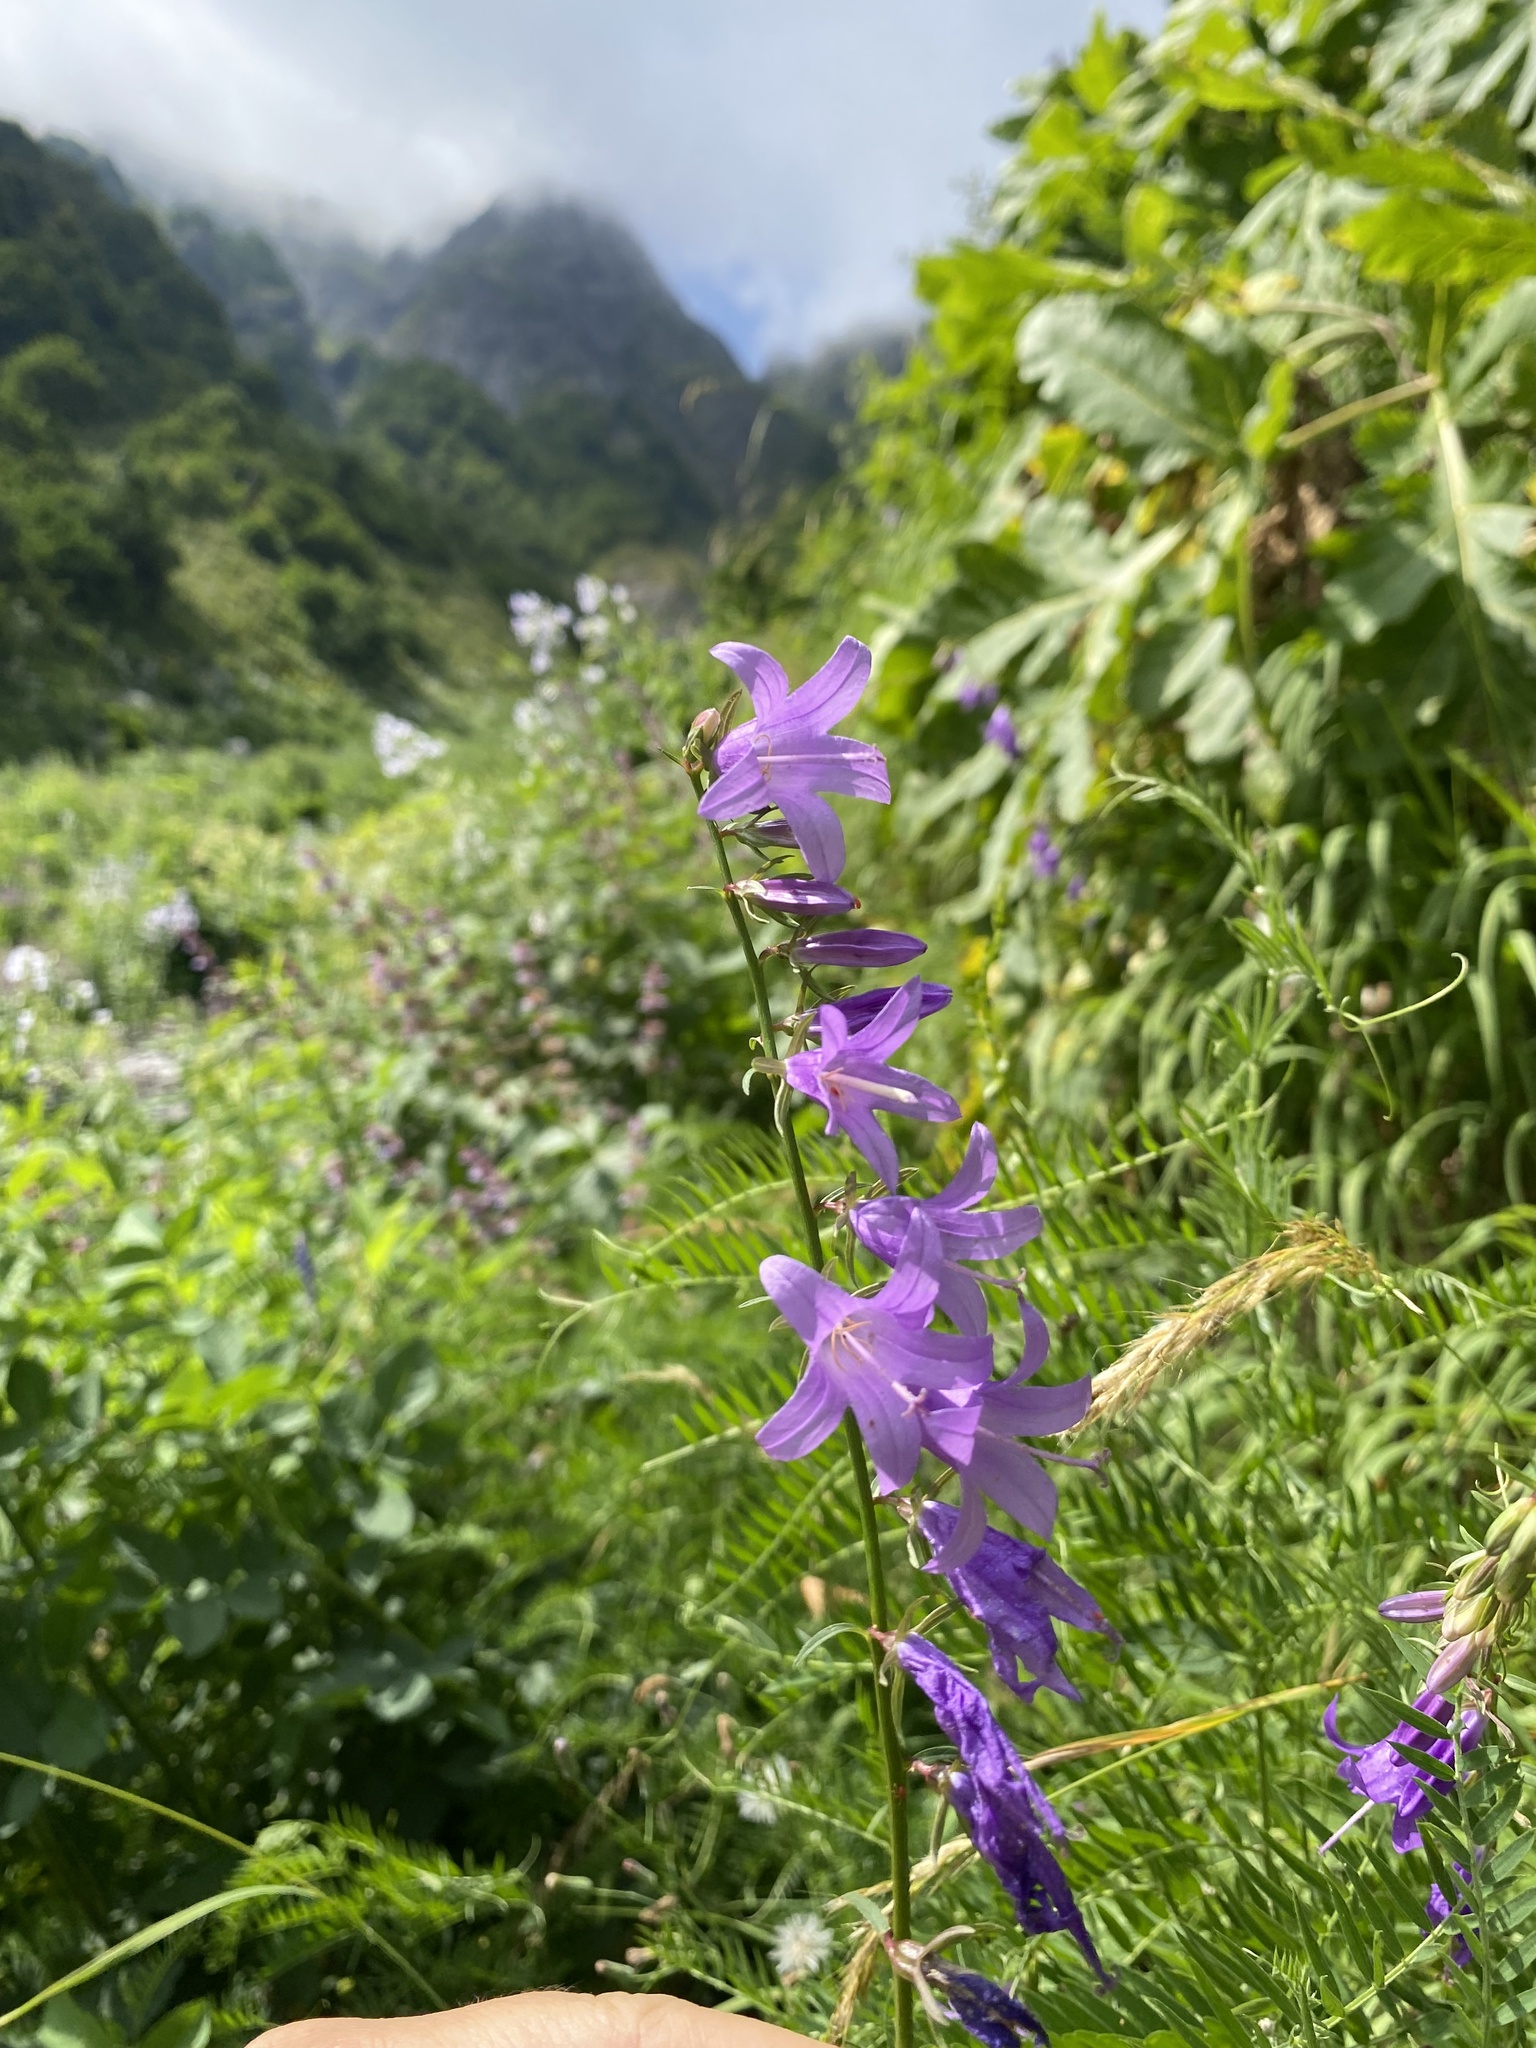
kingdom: Plantae
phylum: Tracheophyta
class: Magnoliopsida
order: Asterales
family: Campanulaceae
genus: Campanula
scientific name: Campanula rapunculoides
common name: Creeping bellflower
